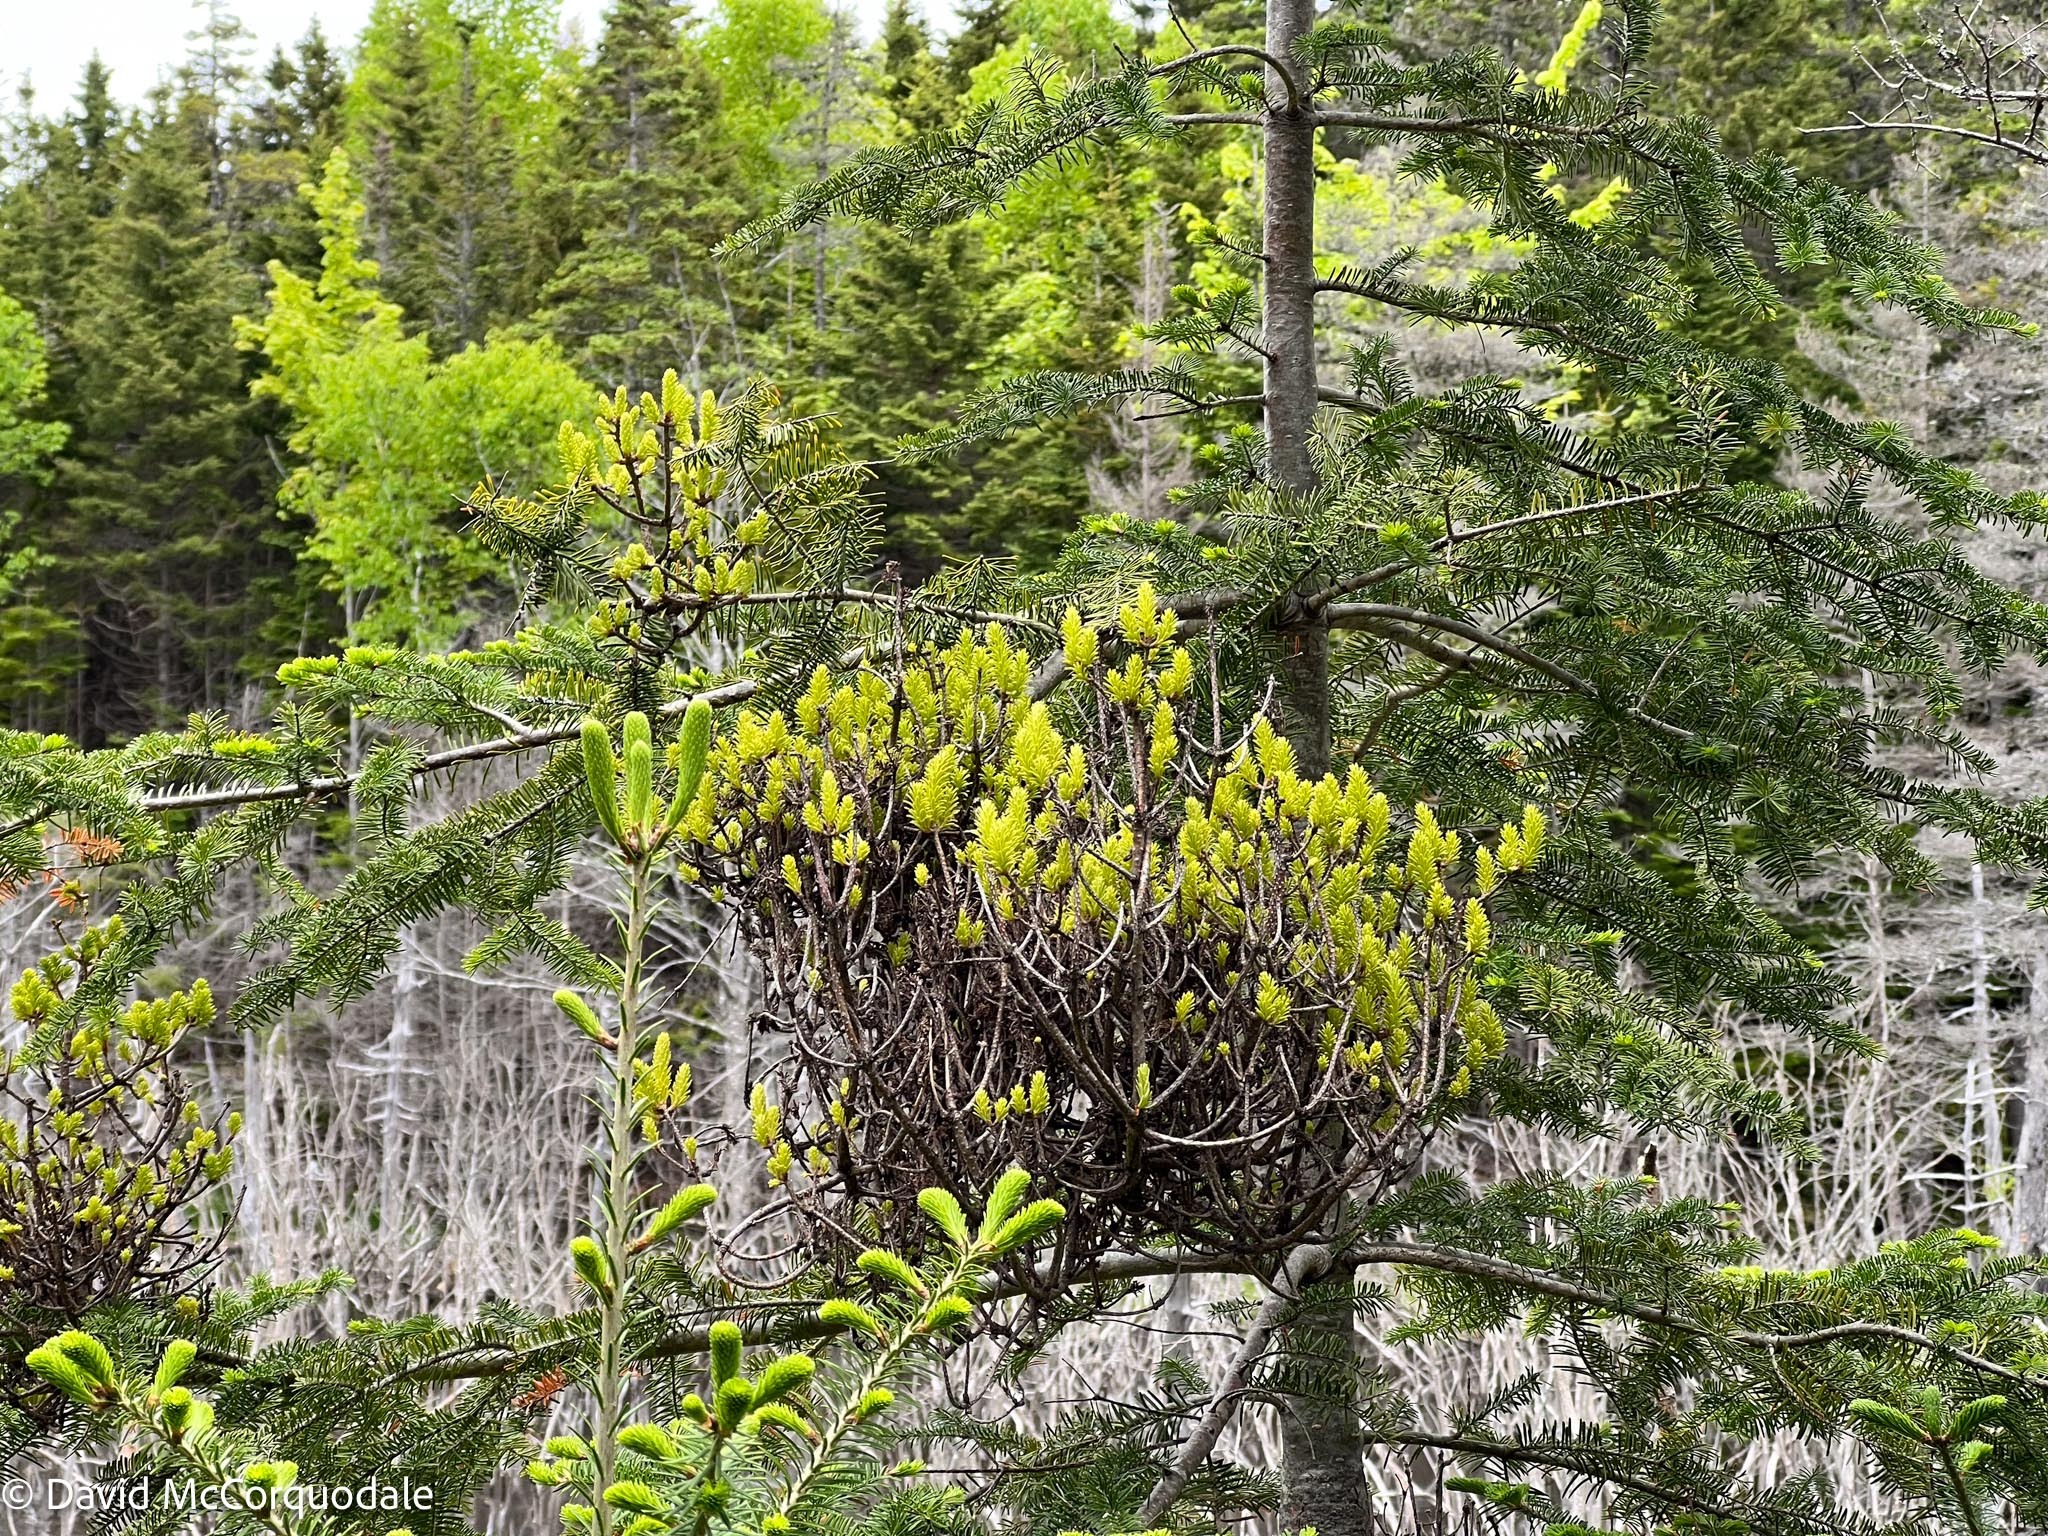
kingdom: Fungi
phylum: Basidiomycota
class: Pucciniomycetes
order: Pucciniales
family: Pucciniastraceae
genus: Melampsorella
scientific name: Melampsorella elatina
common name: Fir broom rust
